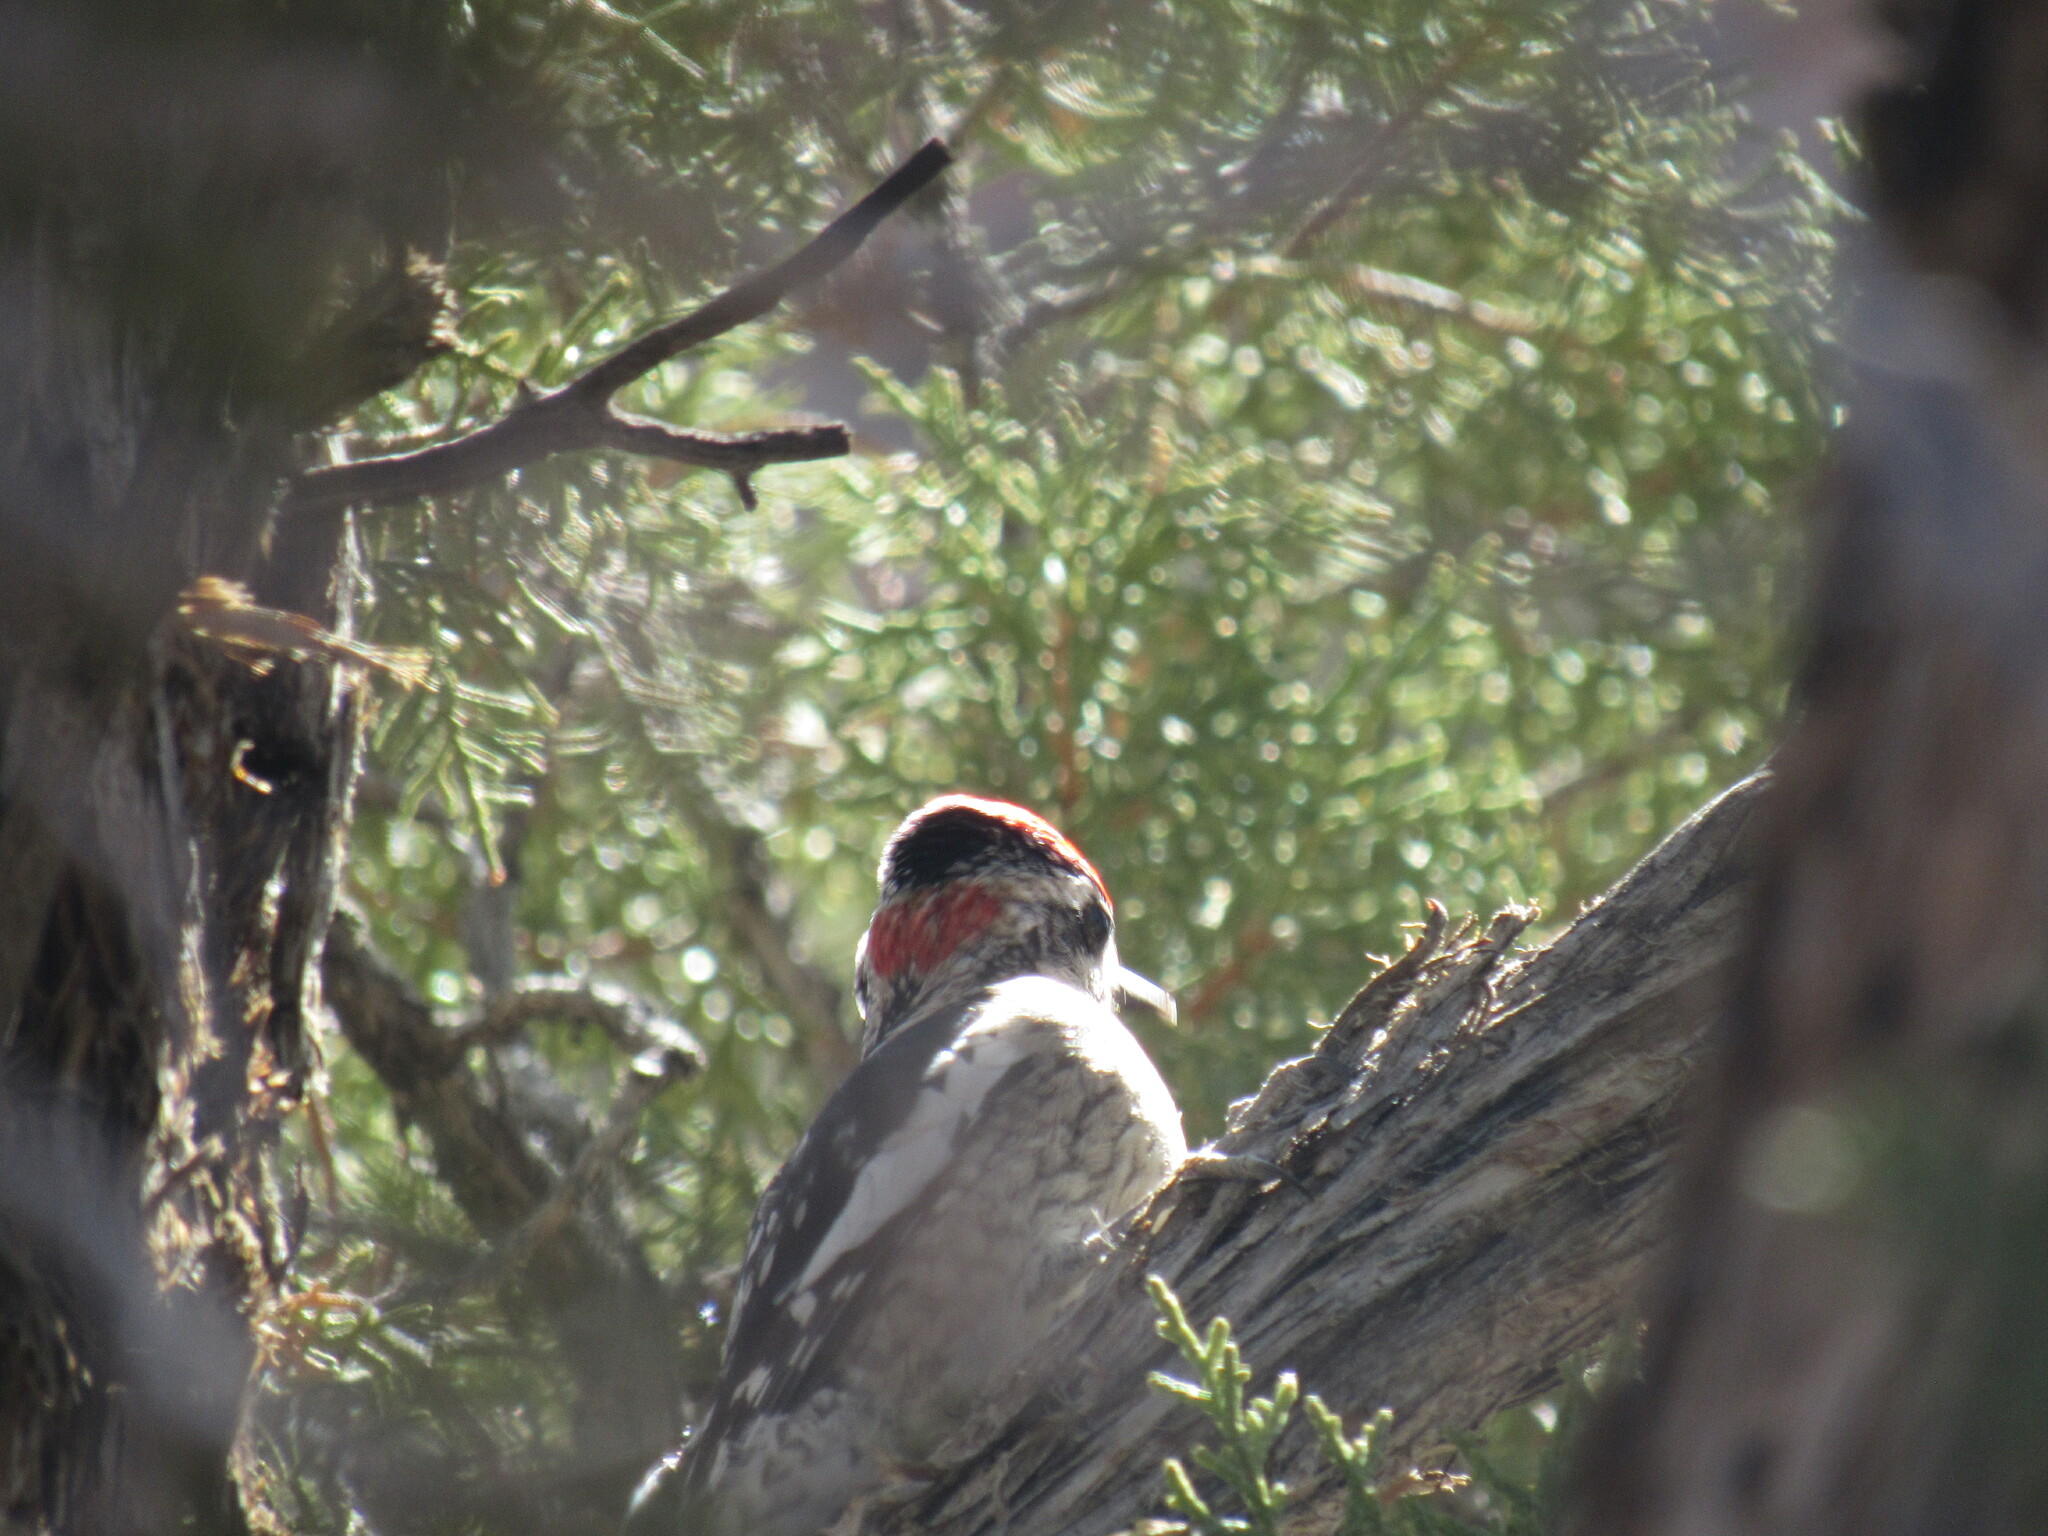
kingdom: Animalia
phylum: Chordata
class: Aves
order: Piciformes
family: Picidae
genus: Sphyrapicus
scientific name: Sphyrapicus nuchalis
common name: Red-naped sapsucker
